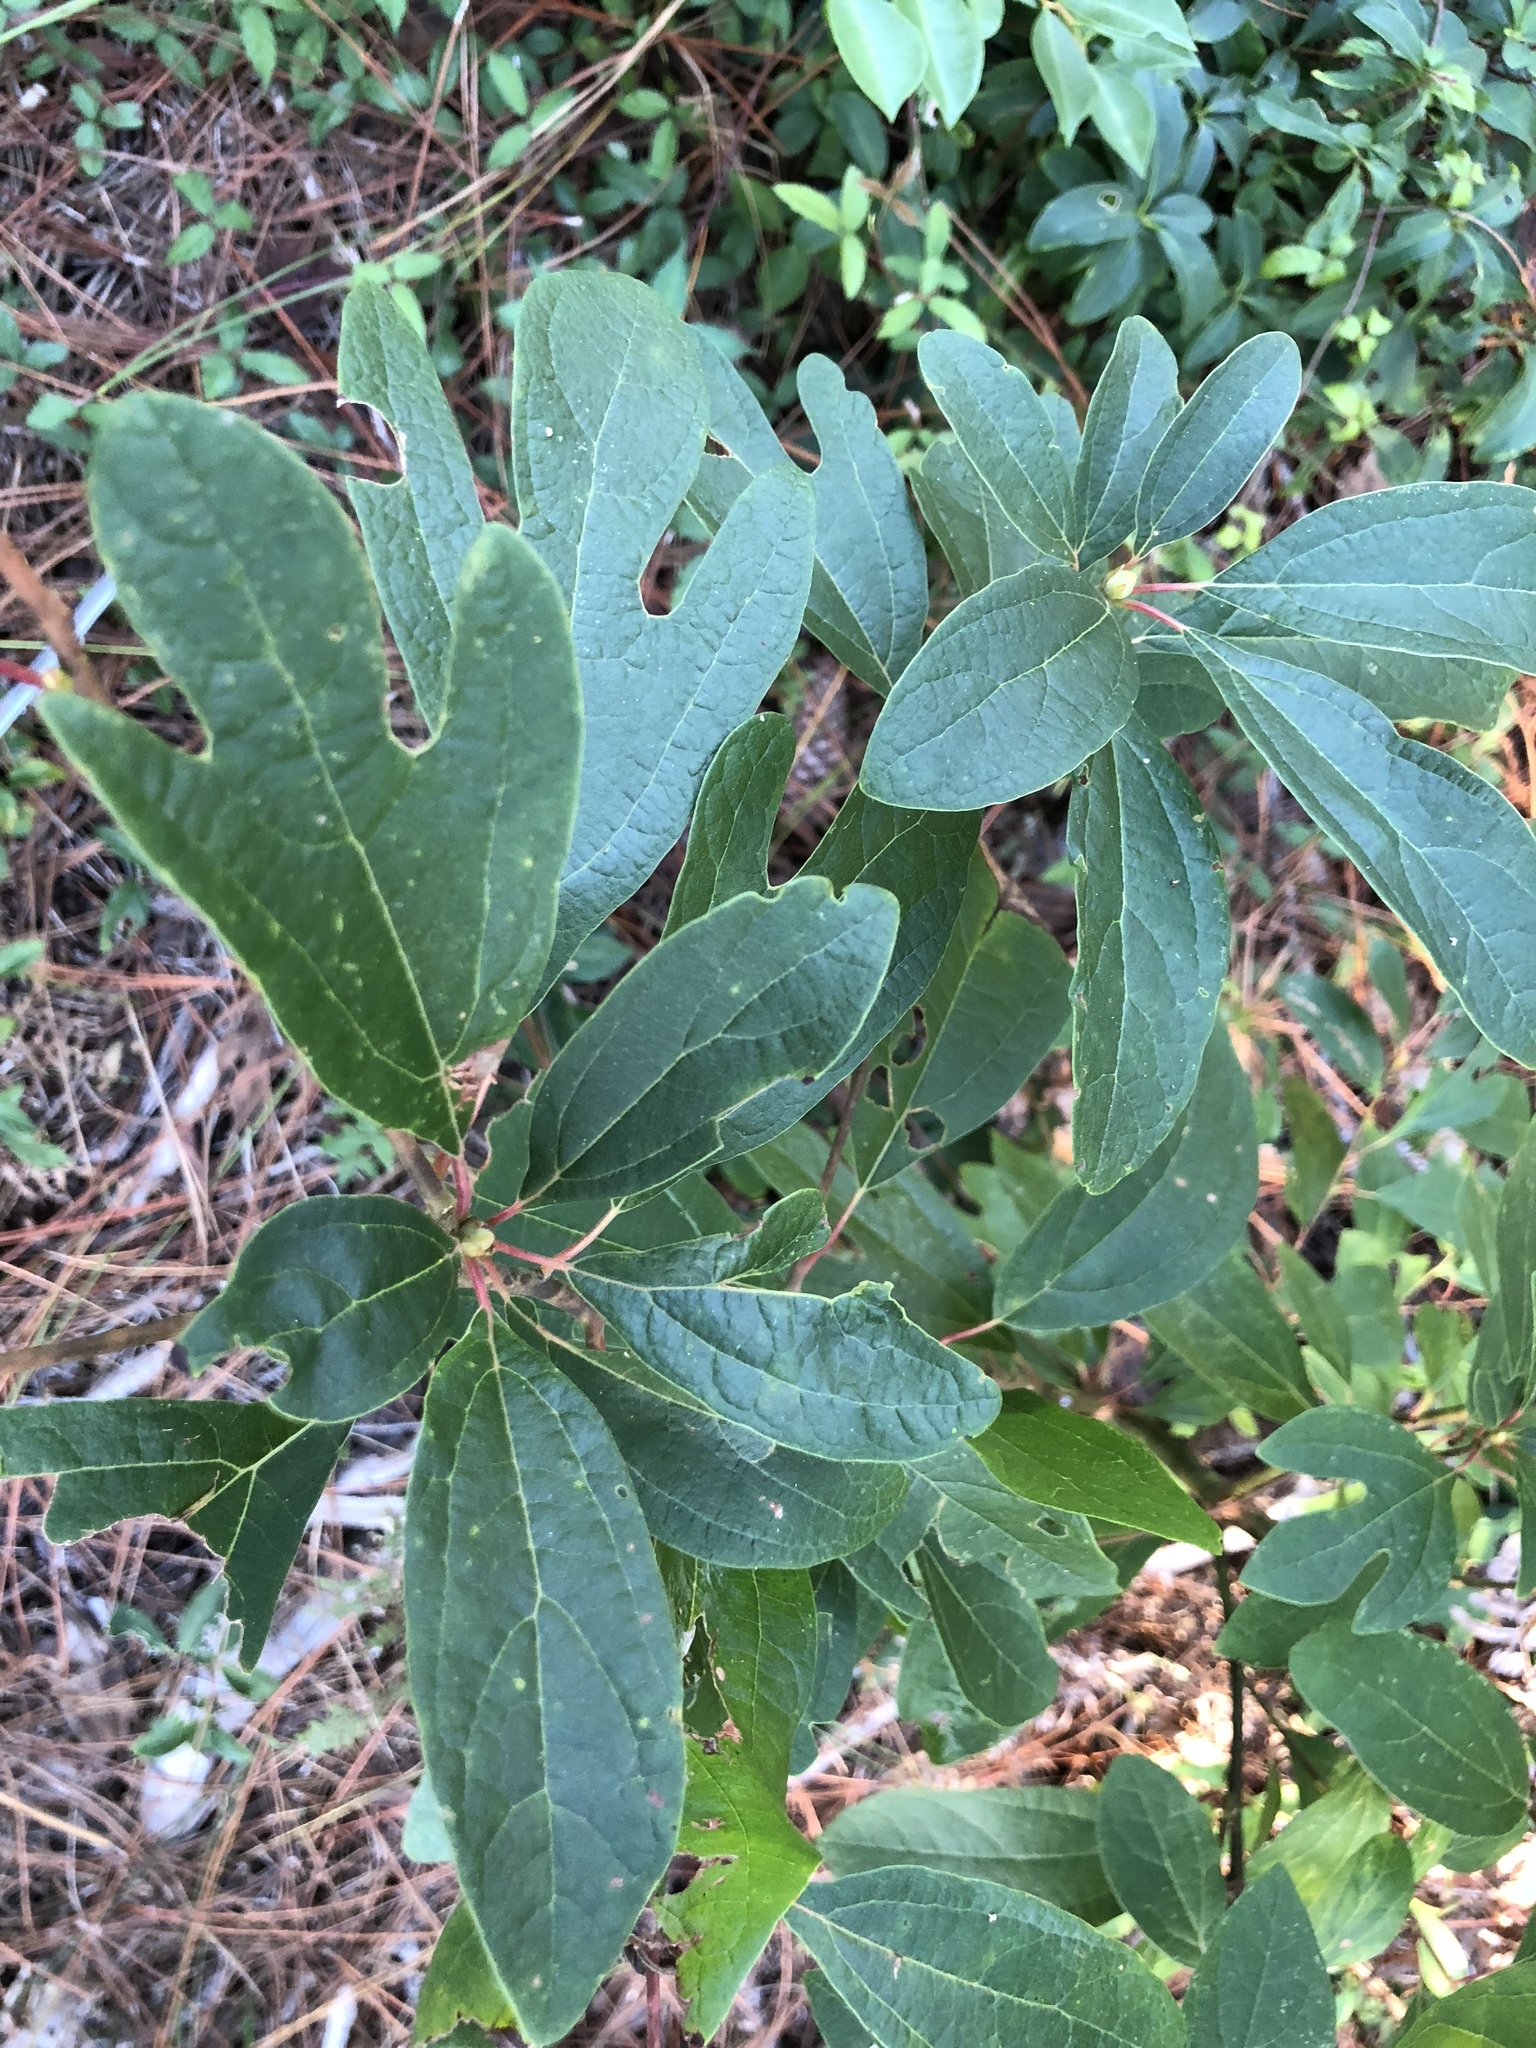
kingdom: Plantae
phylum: Tracheophyta
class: Magnoliopsida
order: Laurales
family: Lauraceae
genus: Sassafras
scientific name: Sassafras albidum
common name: Sassafras
